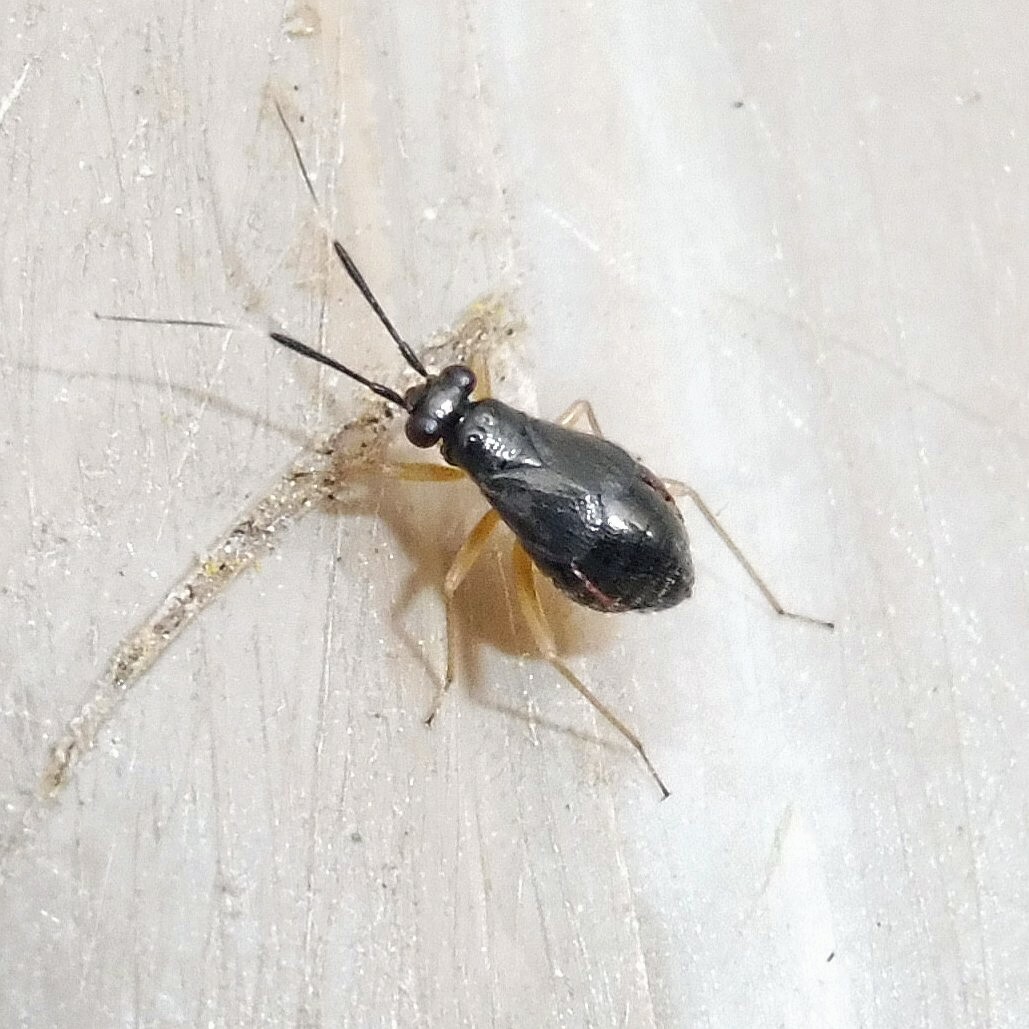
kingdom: Animalia
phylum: Arthropoda
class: Insecta
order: Hemiptera
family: Miridae
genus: Mecomma
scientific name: Mecomma ambulans
